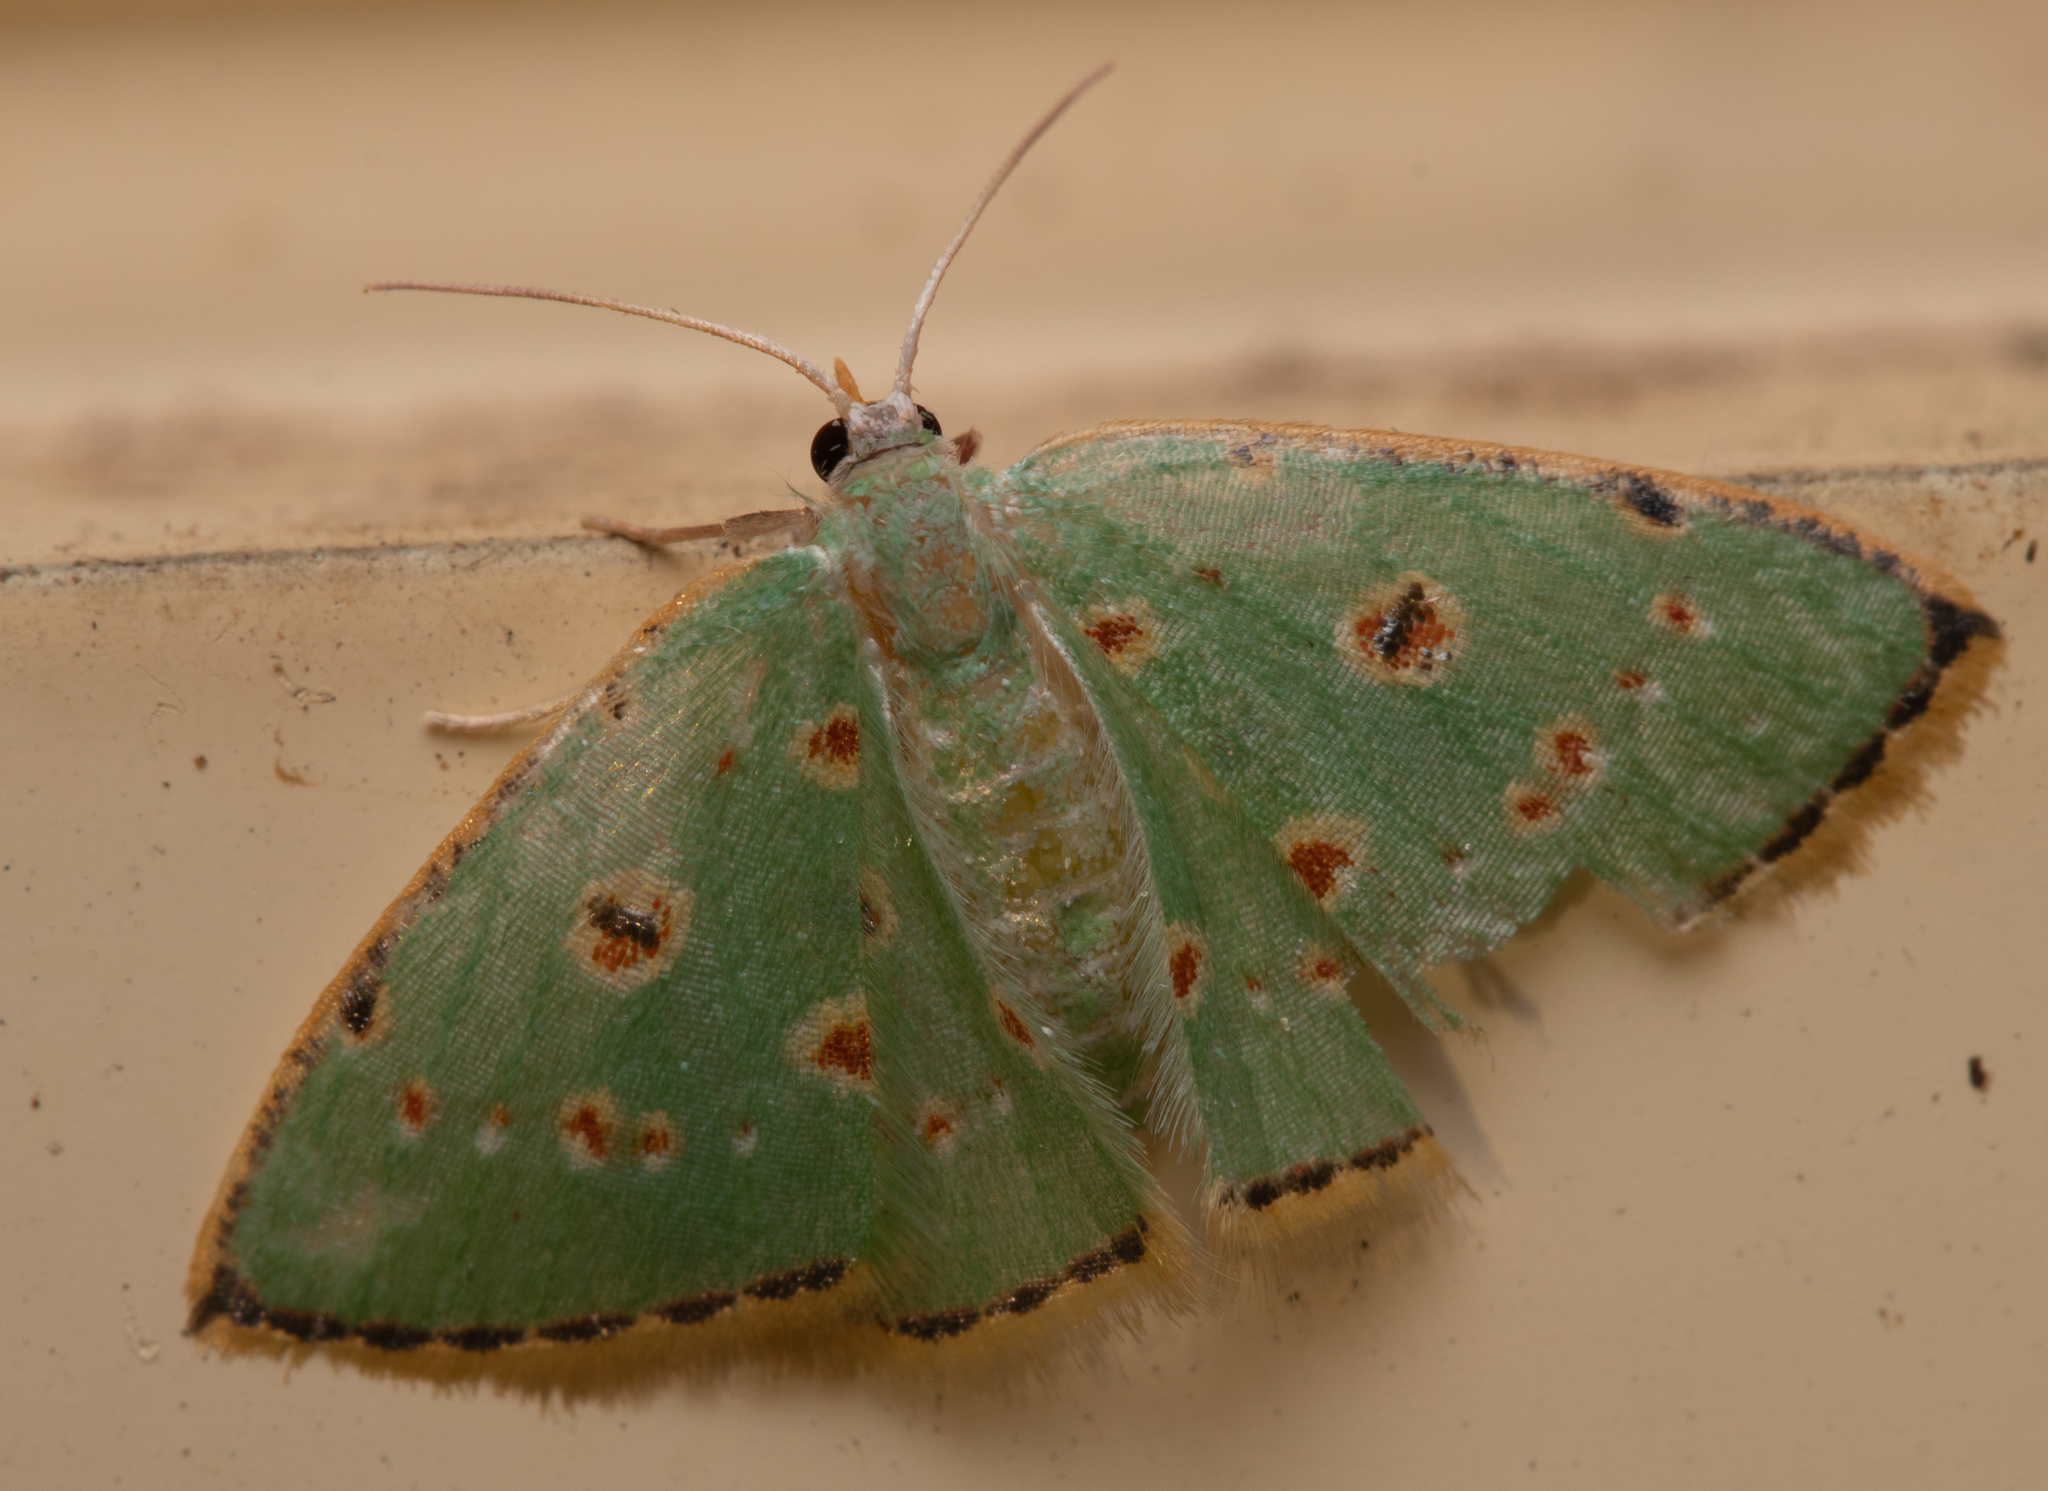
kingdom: Animalia
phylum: Arthropoda
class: Insecta
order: Lepidoptera
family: Geometridae
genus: Comostola
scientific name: Comostola laesaria
